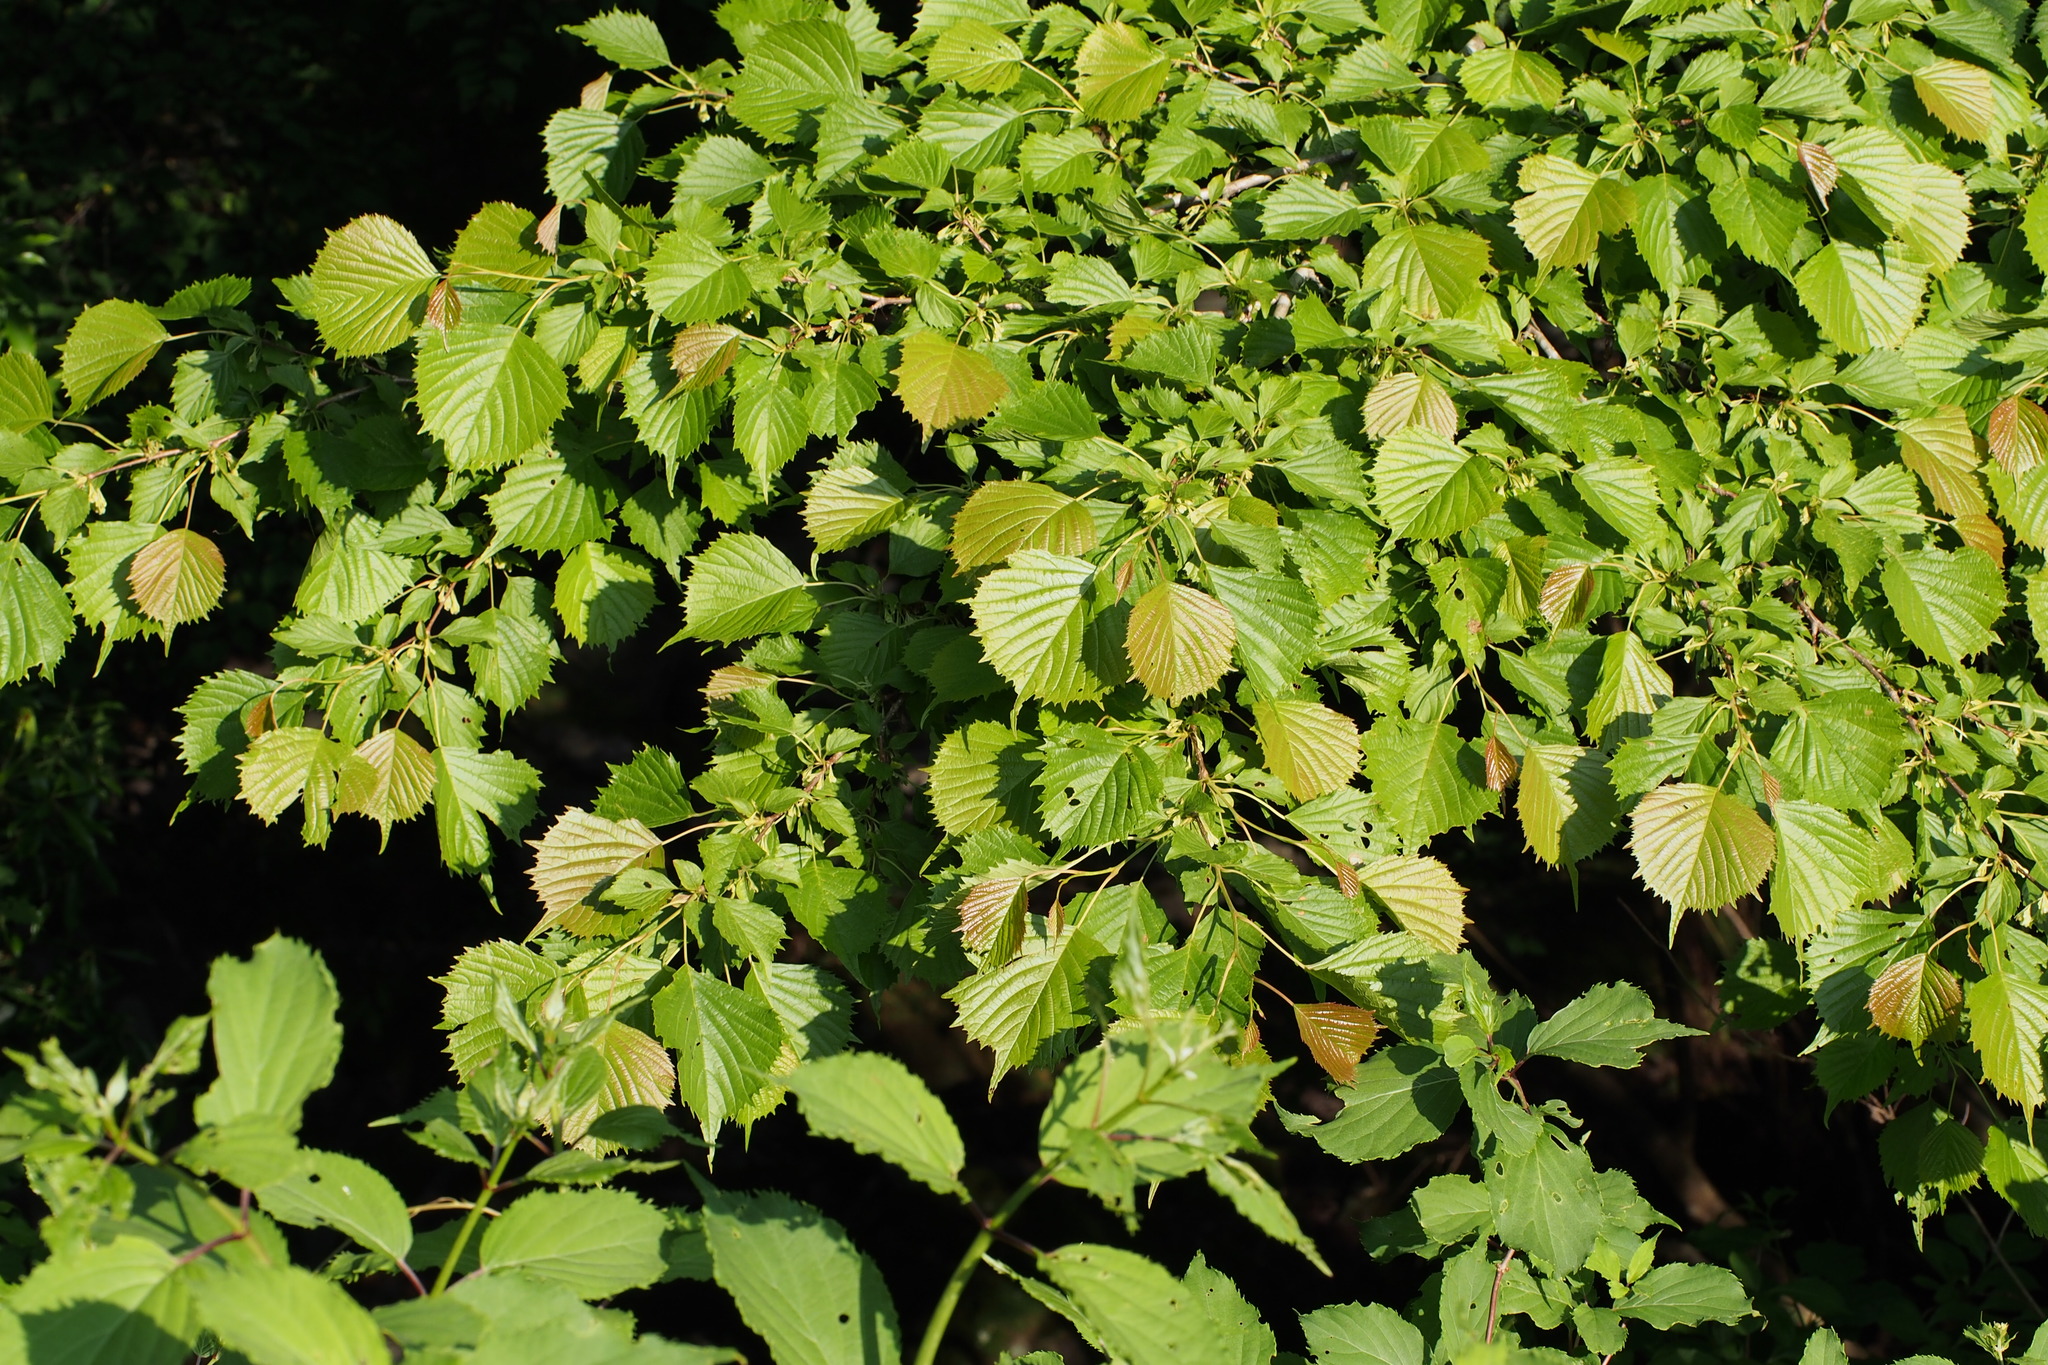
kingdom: Plantae
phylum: Tracheophyta
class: Magnoliopsida
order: Ranunculales
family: Eupteleaceae
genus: Euptelea
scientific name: Euptelea polyandra
